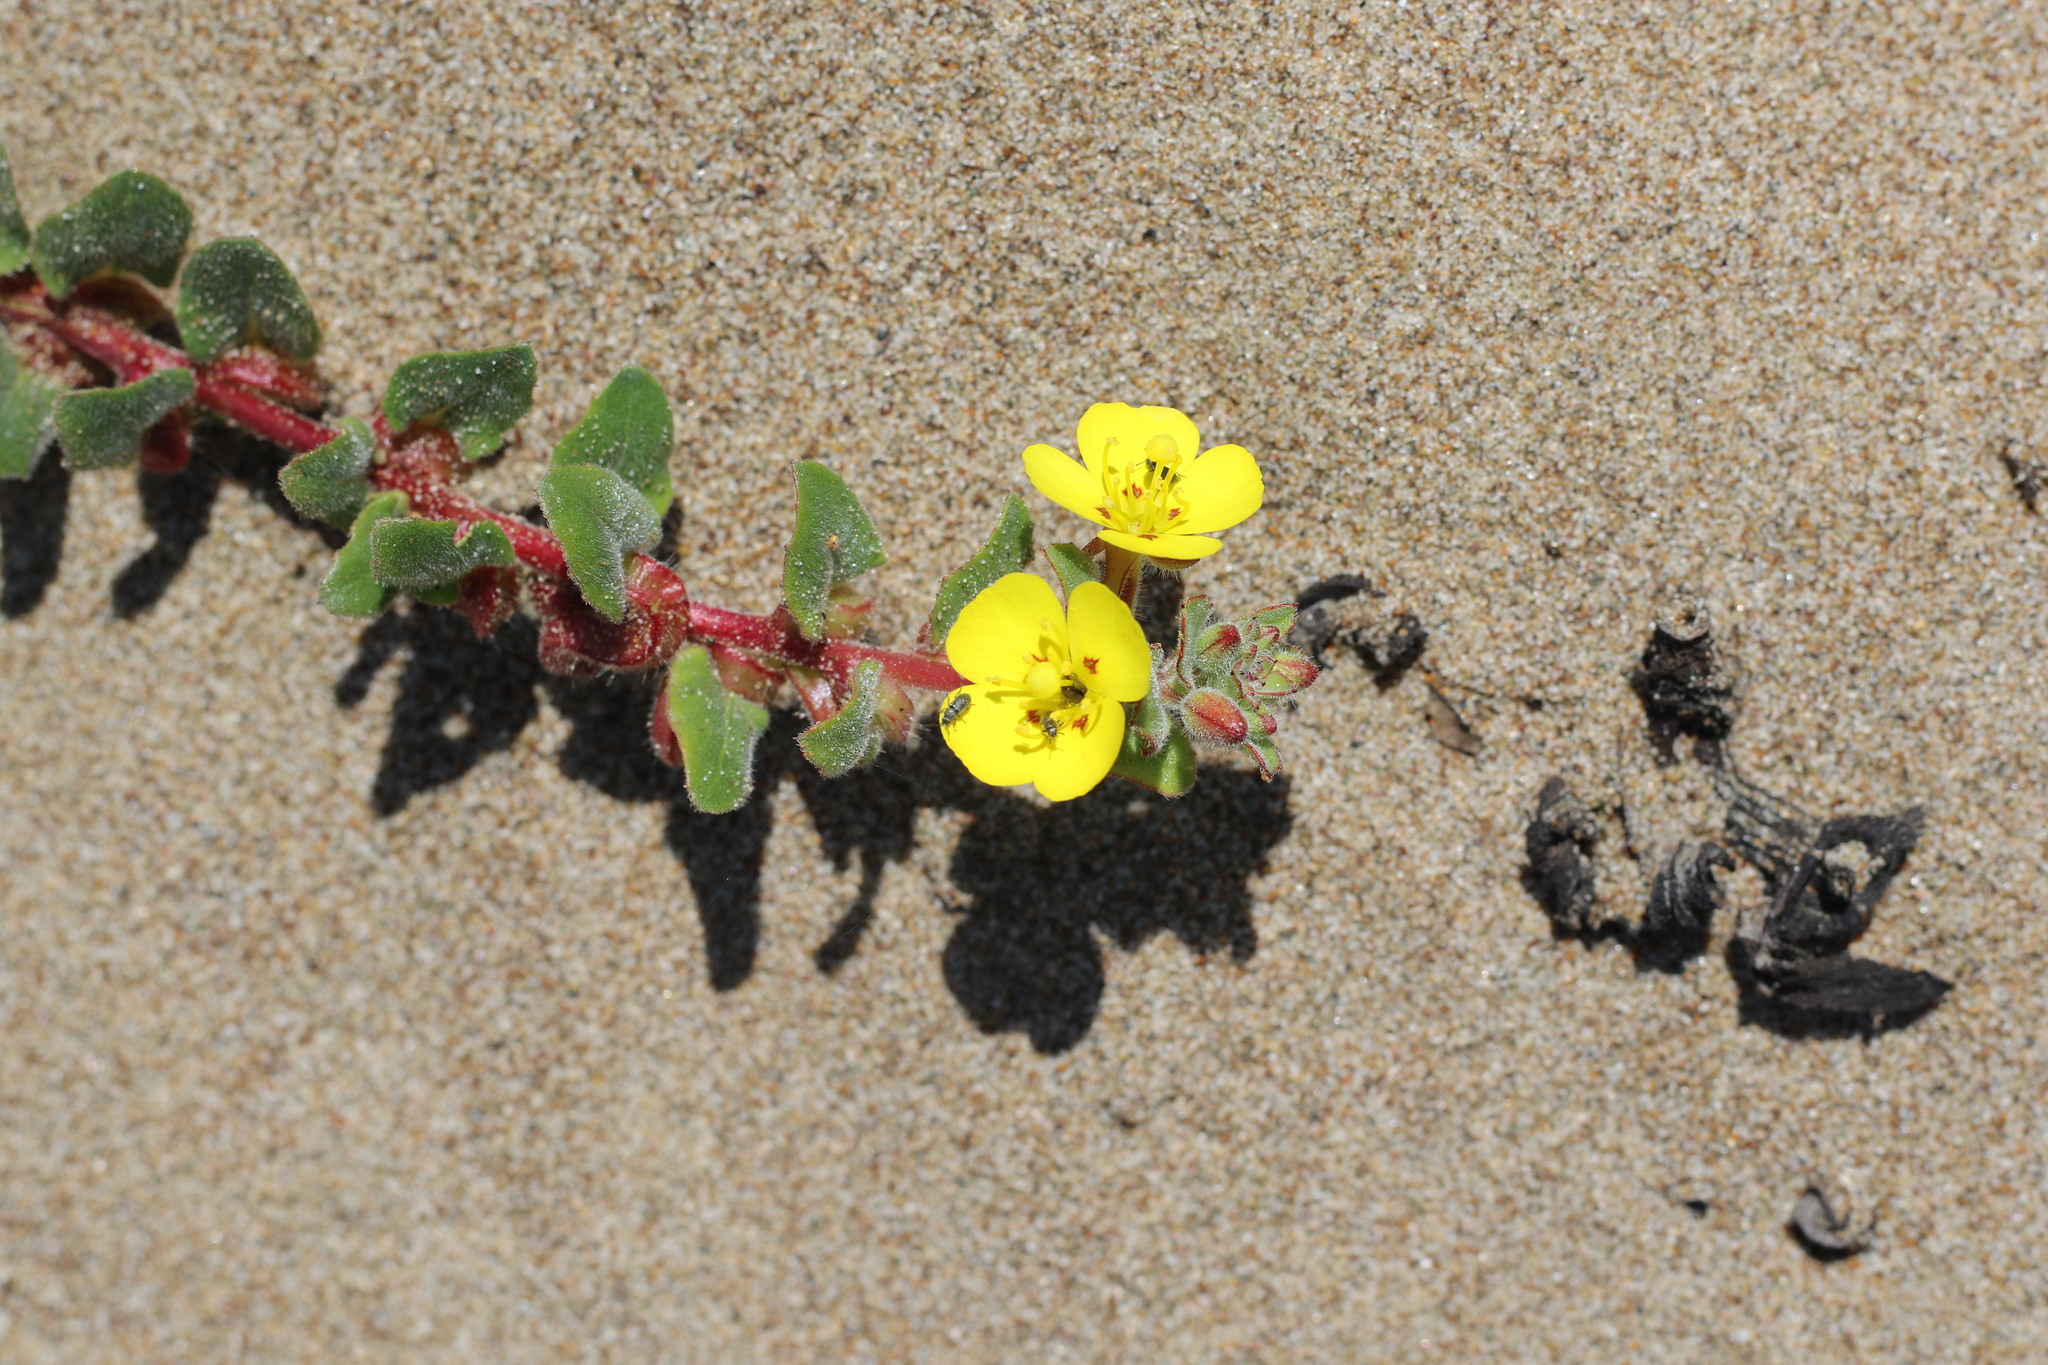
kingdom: Plantae
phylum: Tracheophyta
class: Magnoliopsida
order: Myrtales
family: Onagraceae
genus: Camissoniopsis
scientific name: Camissoniopsis cheiranthifolia
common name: Beach suncup
